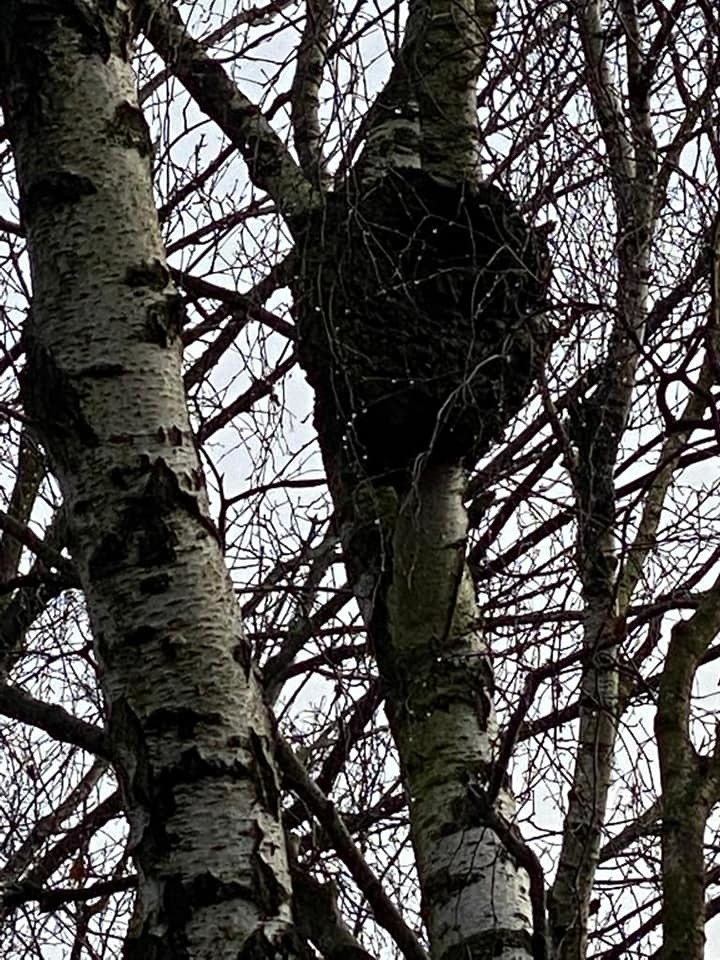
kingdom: Bacteria
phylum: Proteobacteria
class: Alphaproteobacteria
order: Rhizobiales
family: Rhizobiaceae
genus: Rhizobium
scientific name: Rhizobium Agrobacterium radiobacter
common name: Bacterial crown gall
